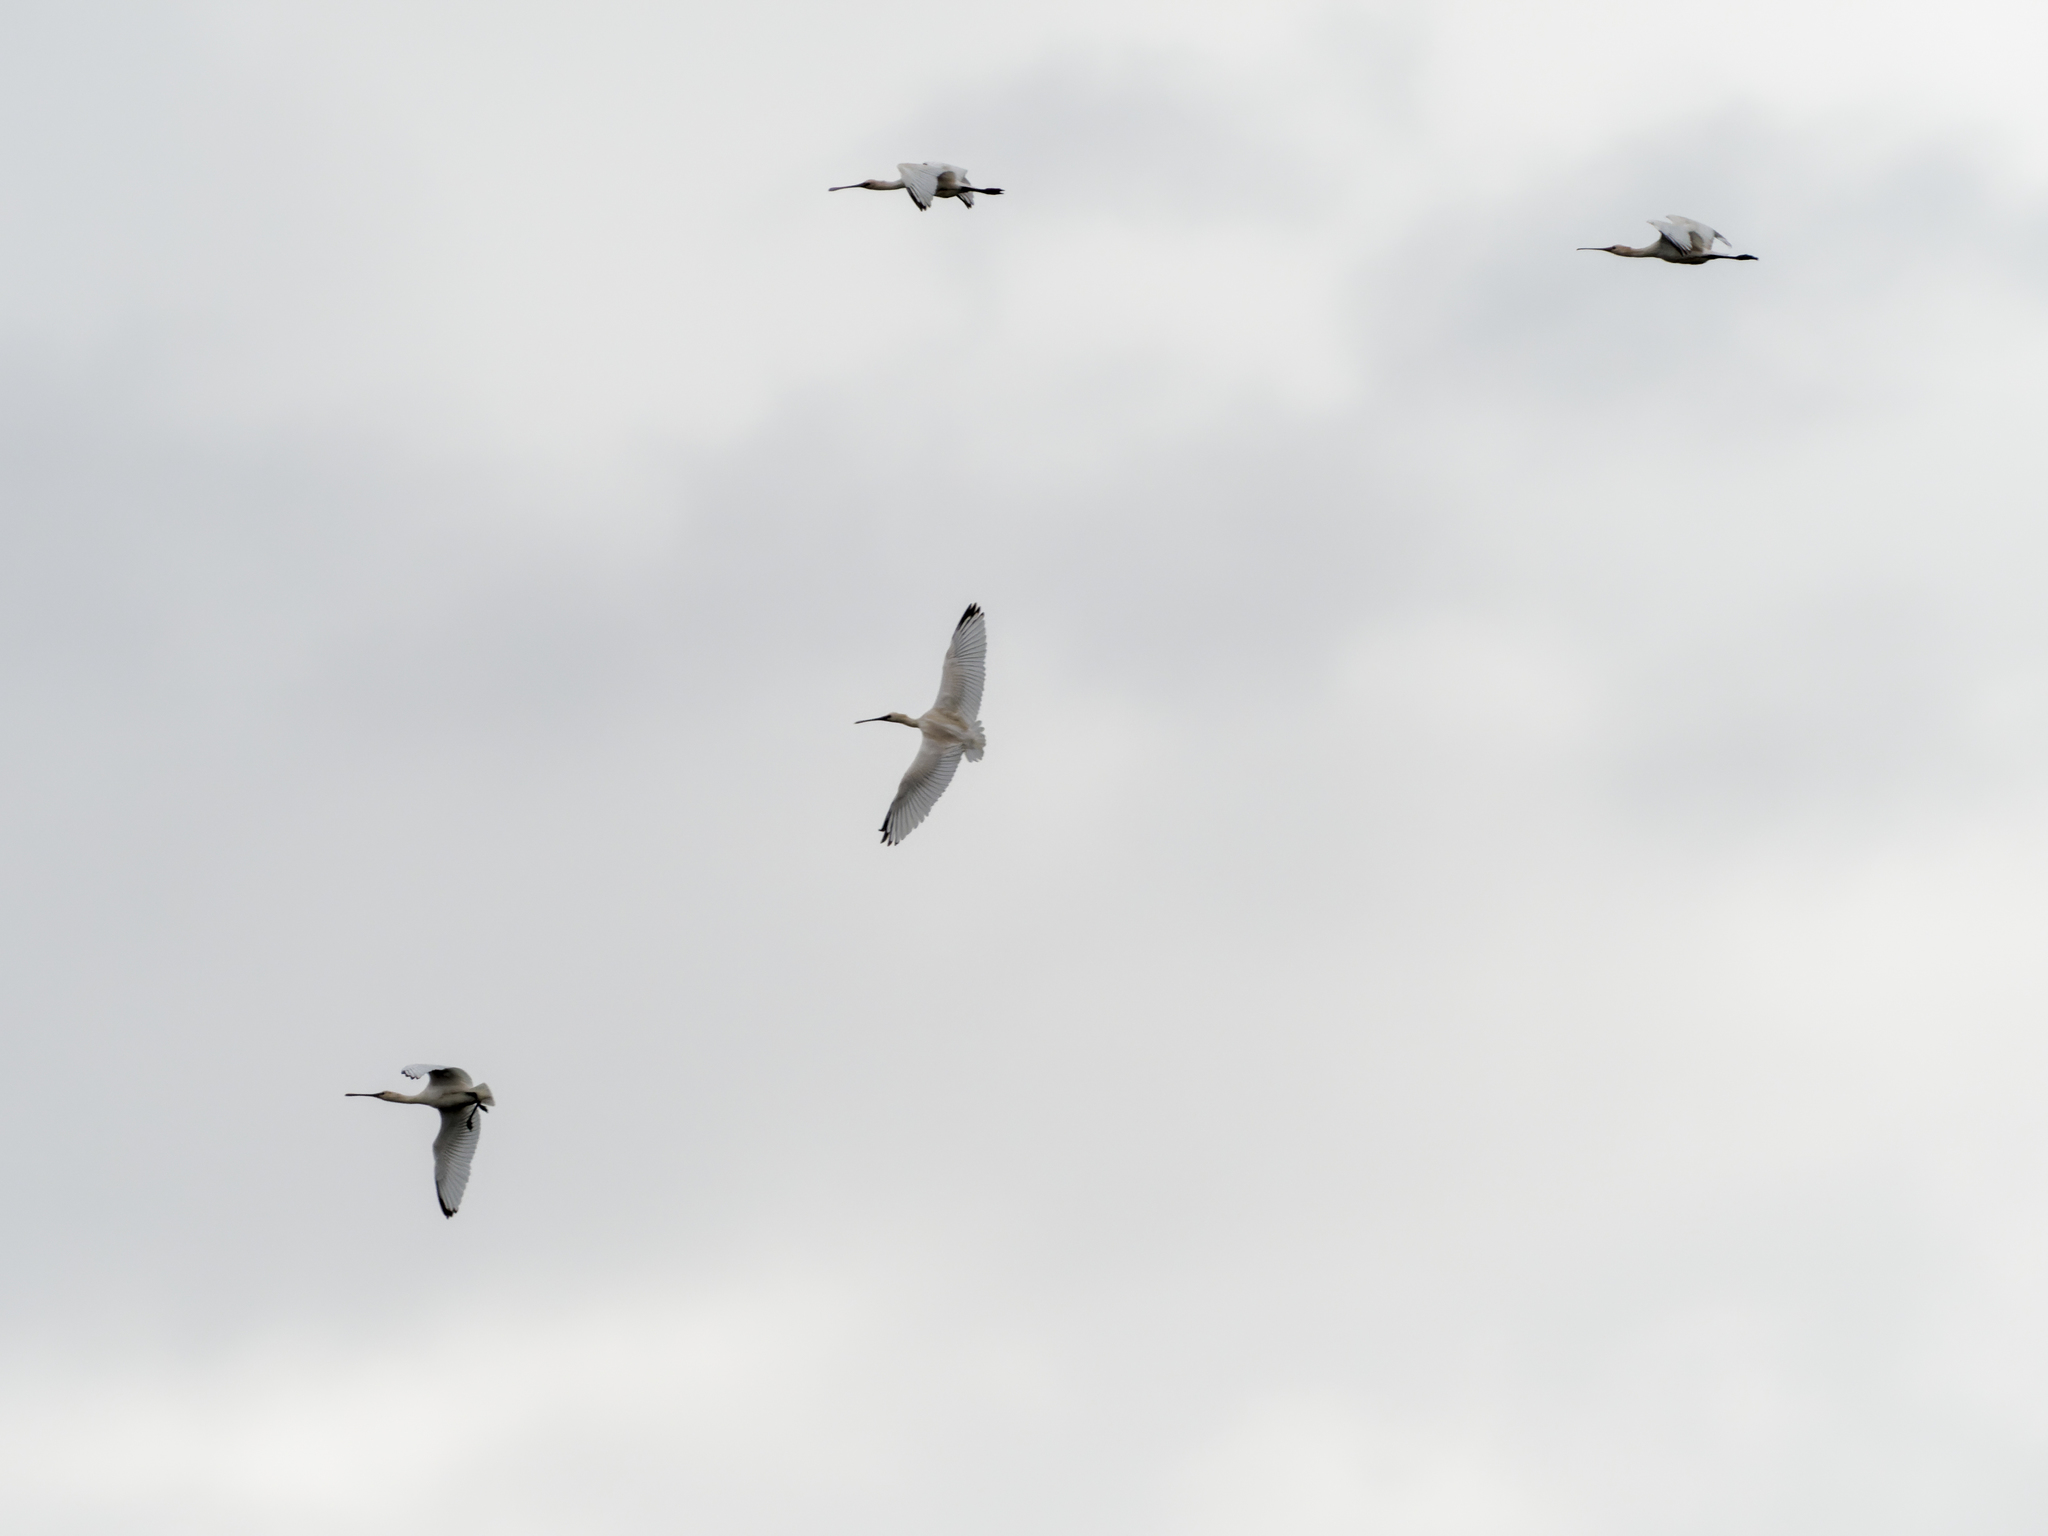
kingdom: Animalia
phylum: Chordata
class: Aves
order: Pelecaniformes
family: Threskiornithidae
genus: Platalea
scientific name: Platalea leucorodia
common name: Eurasian spoonbill
